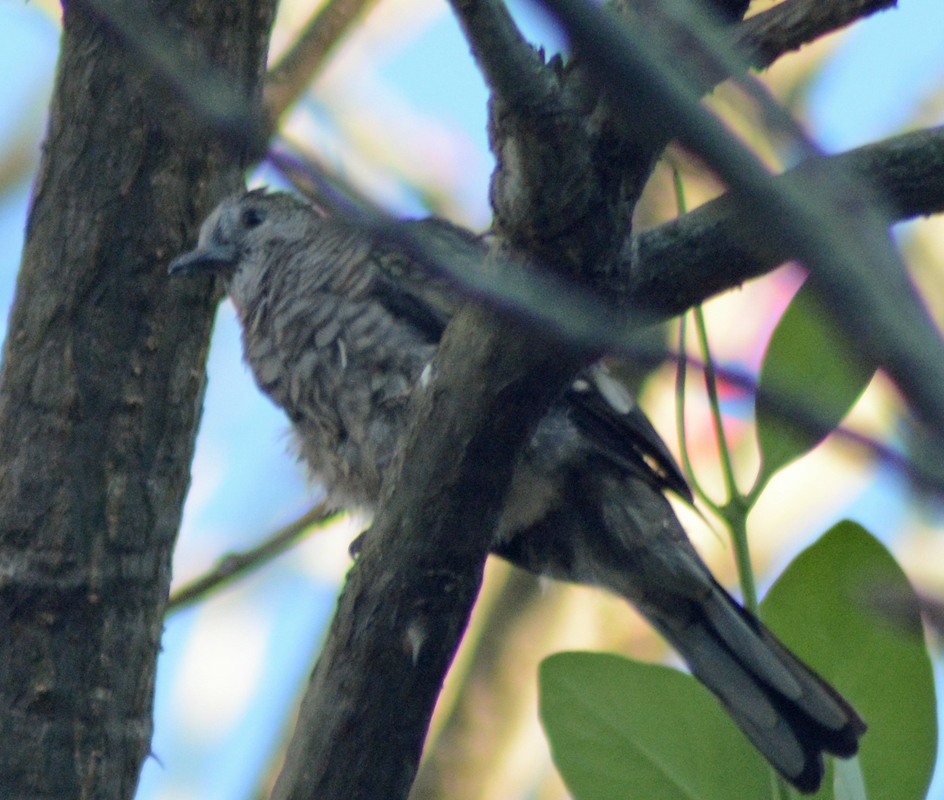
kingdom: Animalia
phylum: Chordata
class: Aves
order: Columbiformes
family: Columbidae
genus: Columbina
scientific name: Columbina inca
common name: Inca dove
